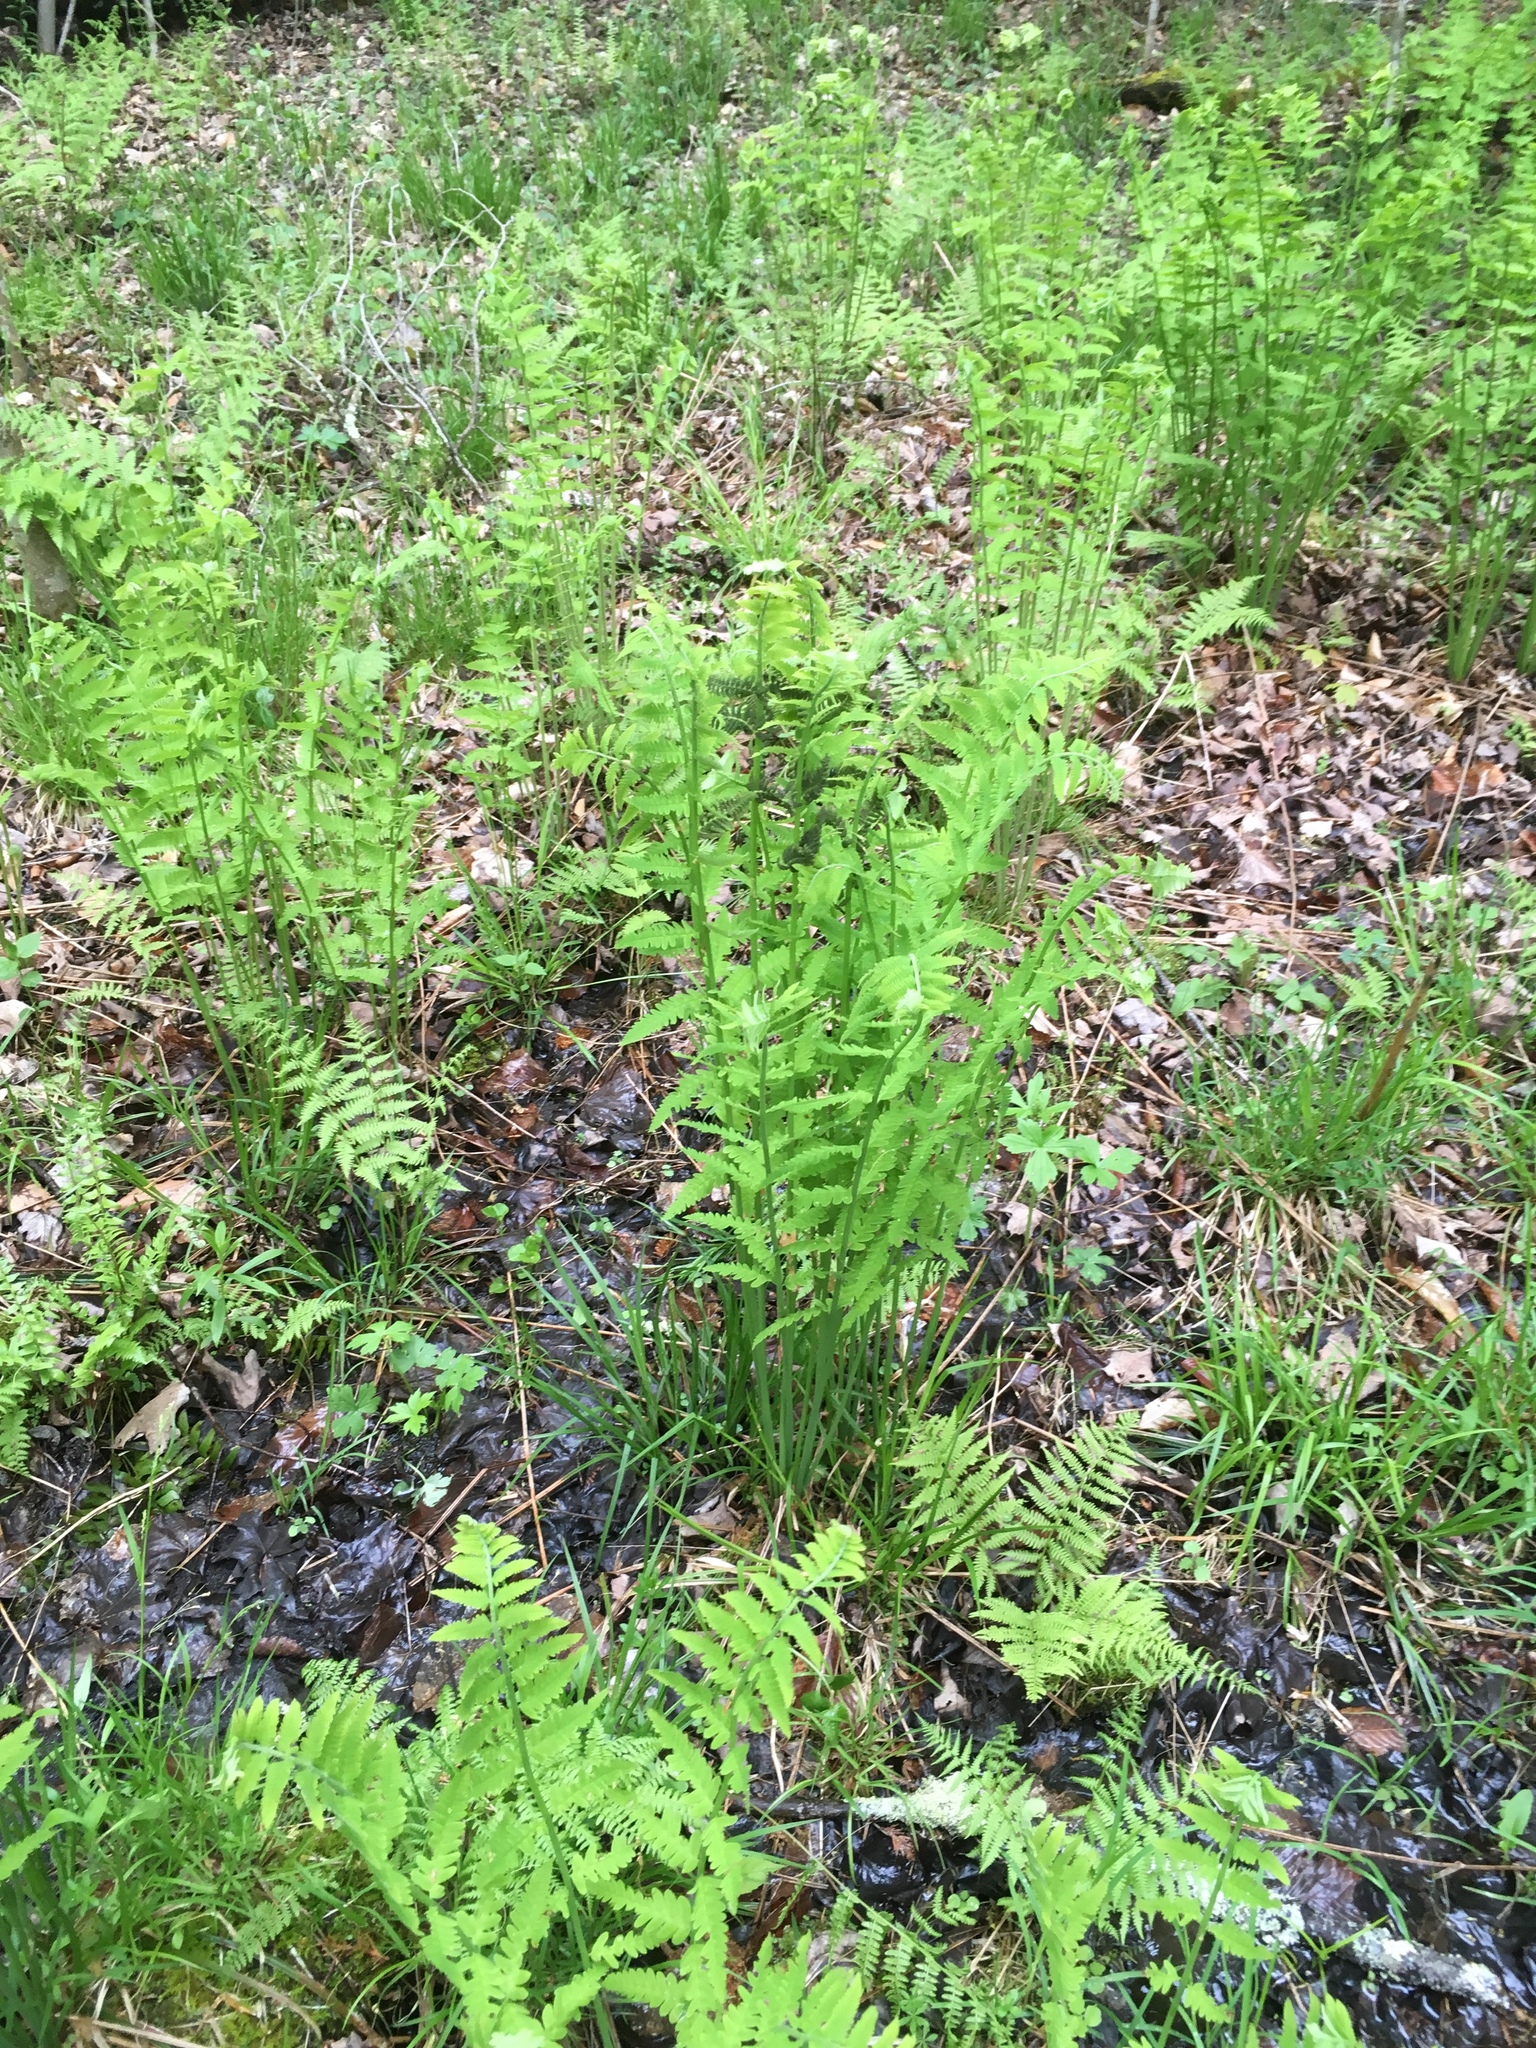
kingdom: Plantae
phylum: Tracheophyta
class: Polypodiopsida
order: Osmundales
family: Osmundaceae
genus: Claytosmunda
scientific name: Claytosmunda claytoniana
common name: Clayton's fern
